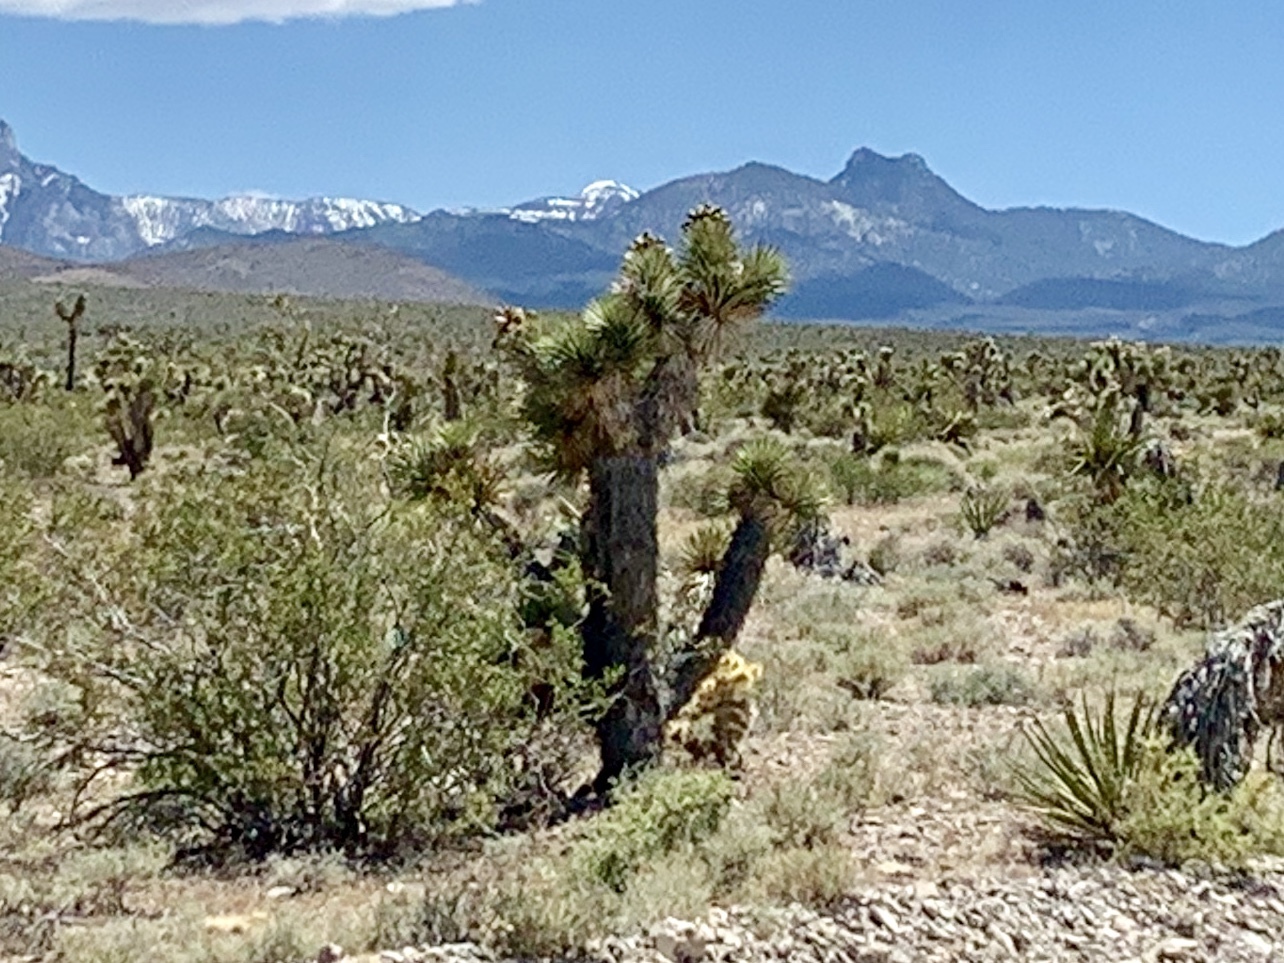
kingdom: Plantae
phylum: Tracheophyta
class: Liliopsida
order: Asparagales
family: Asparagaceae
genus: Yucca
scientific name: Yucca brevifolia
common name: Joshua tree
